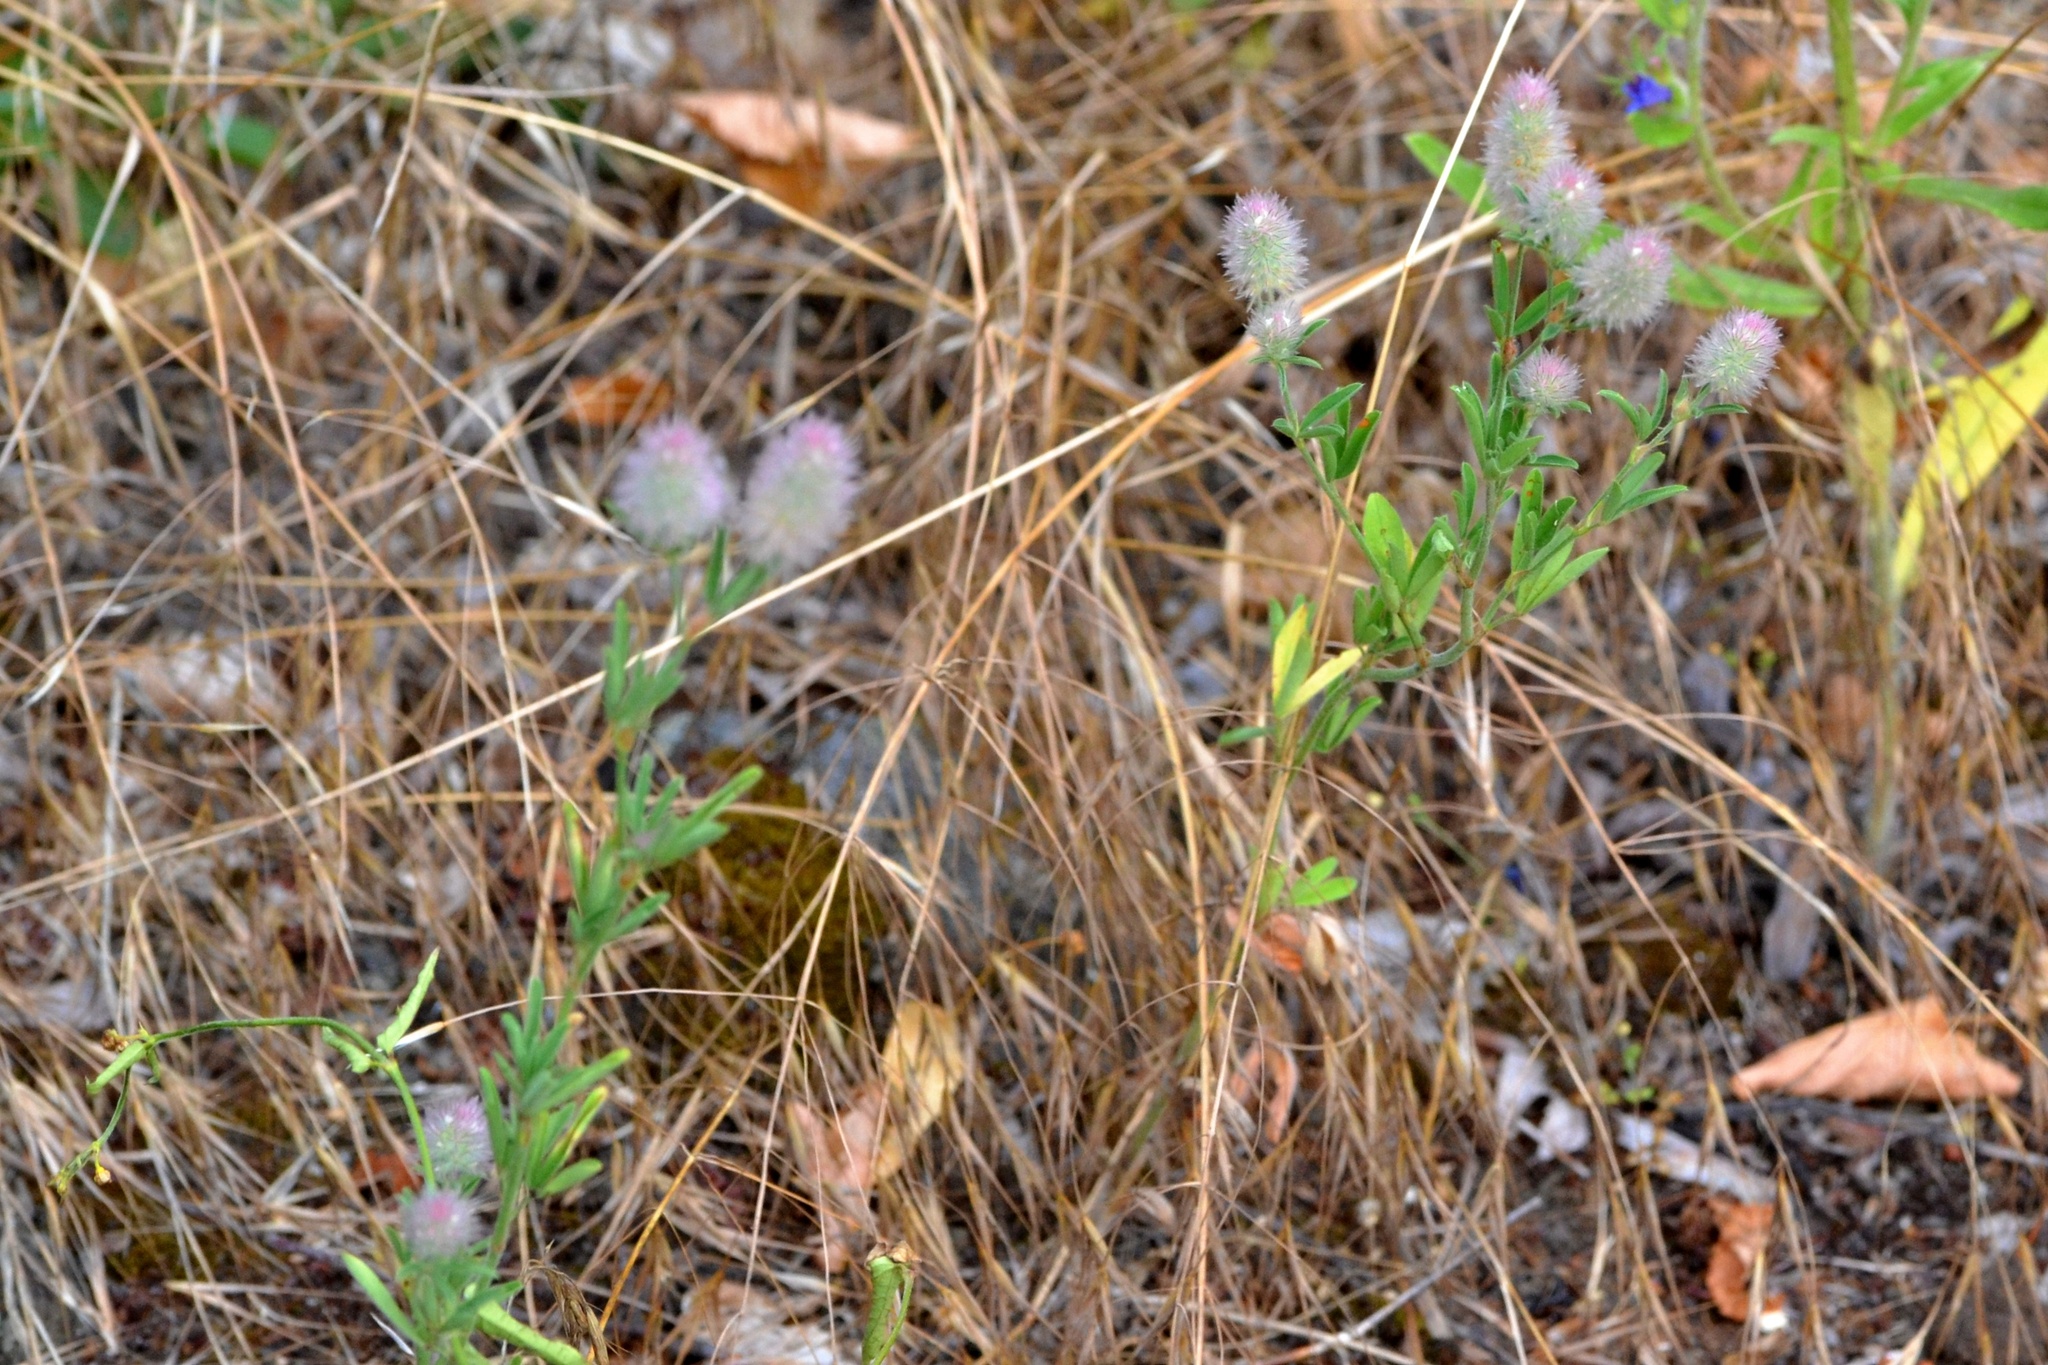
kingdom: Plantae
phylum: Tracheophyta
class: Magnoliopsida
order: Fabales
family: Fabaceae
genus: Trifolium
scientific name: Trifolium arvense
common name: Hare's-foot clover
